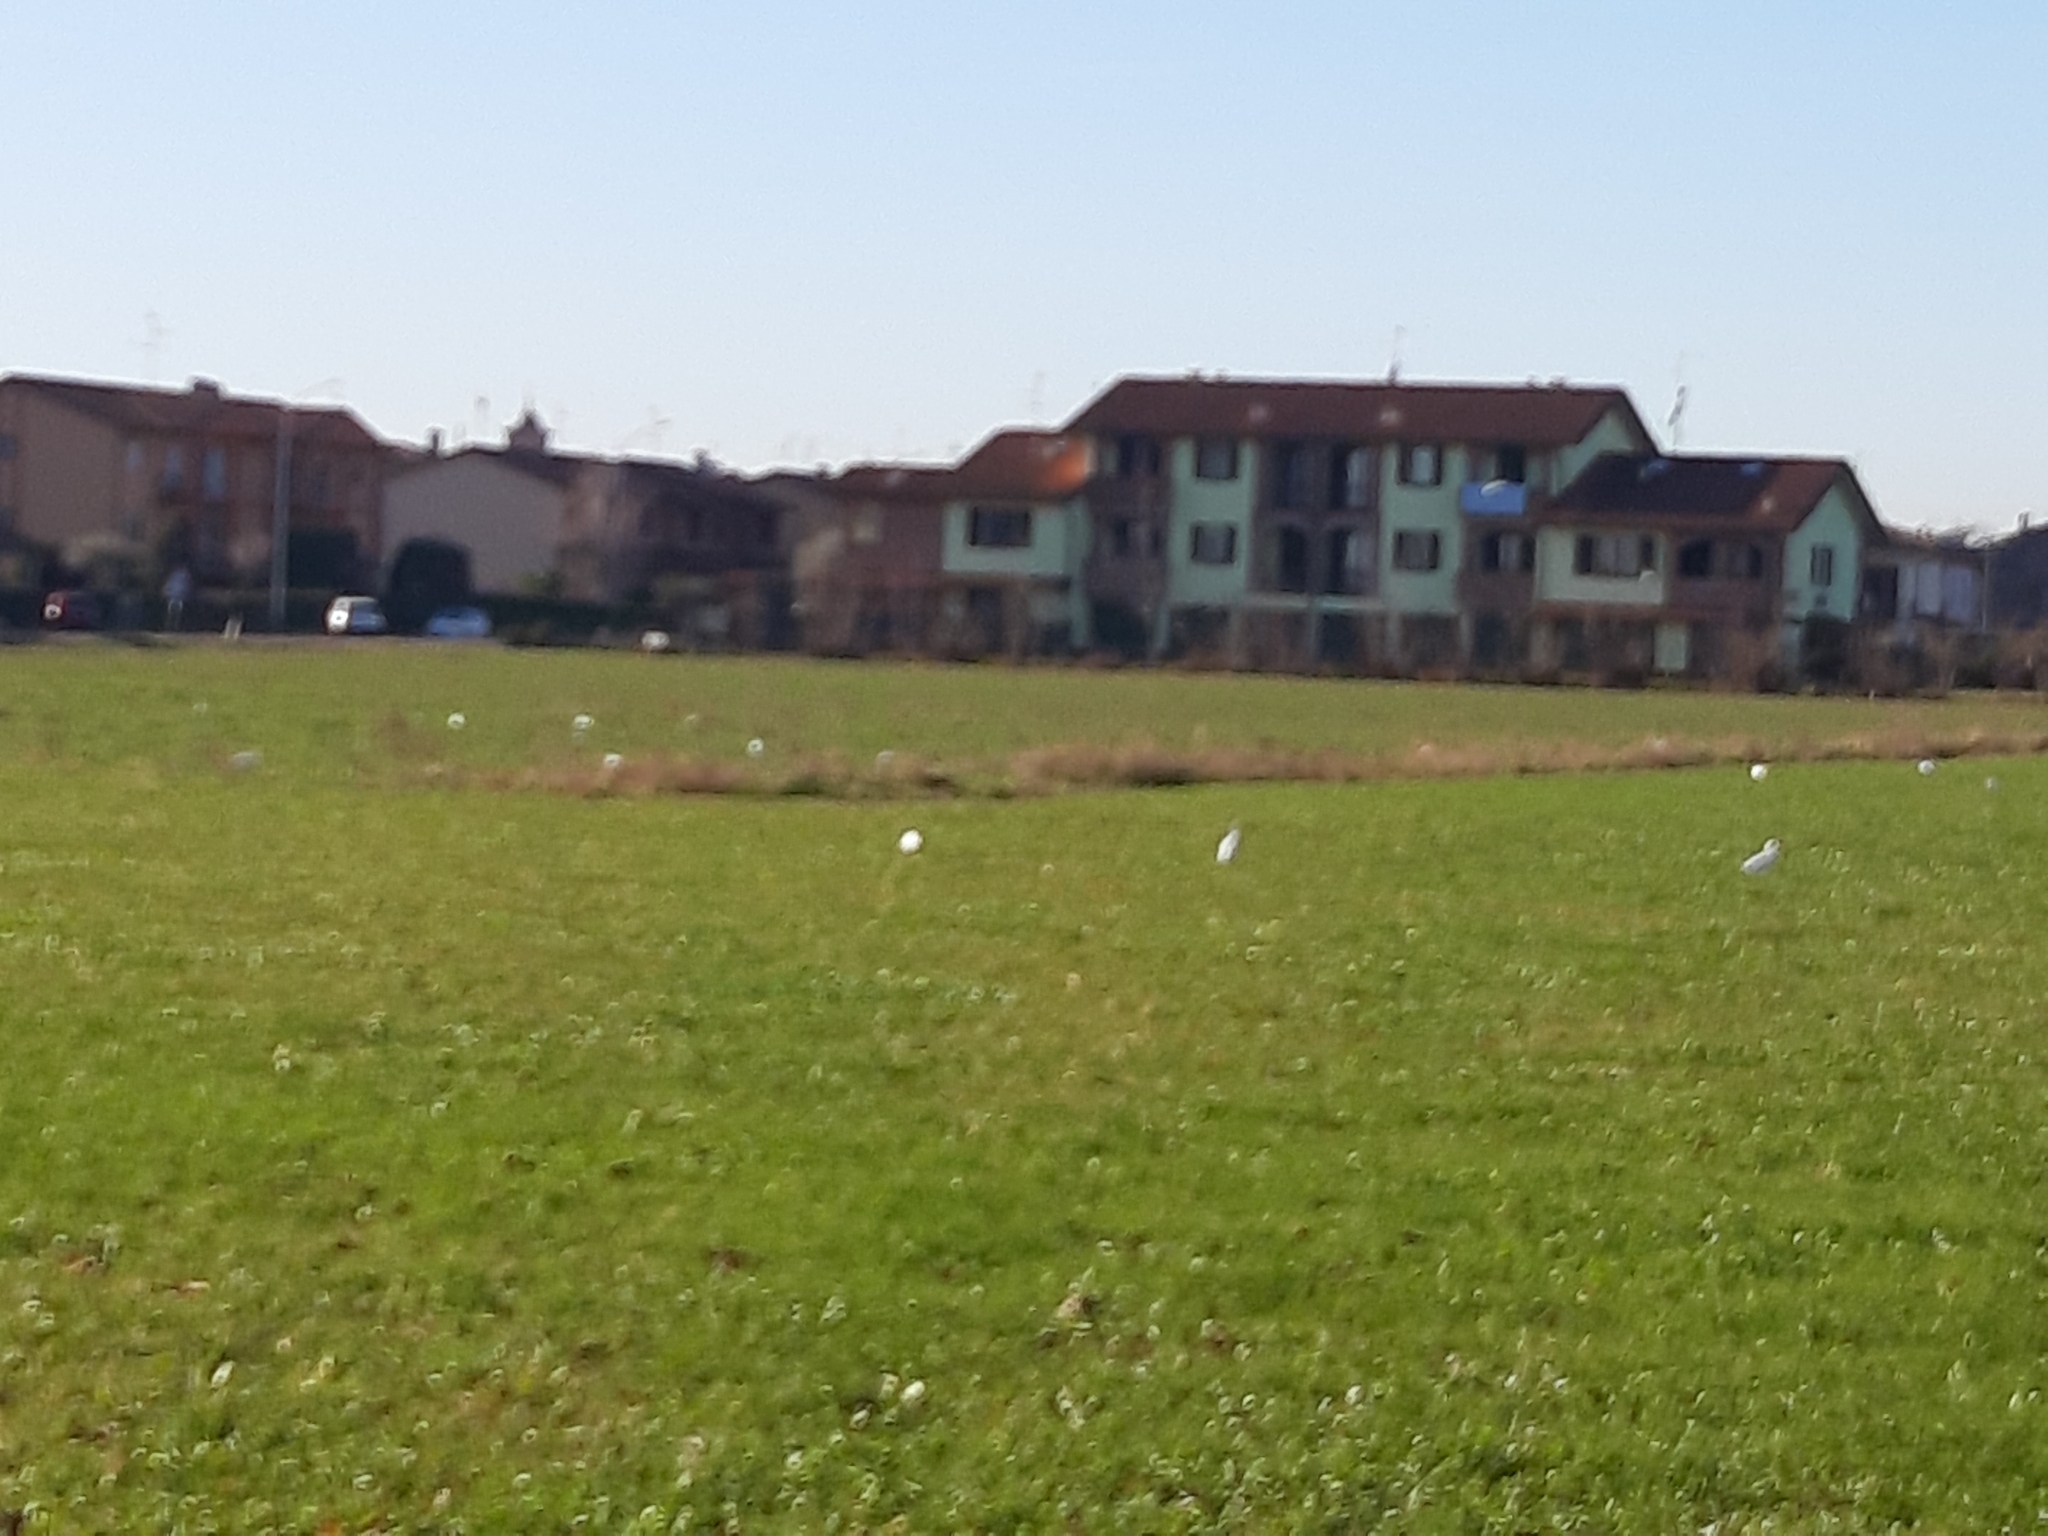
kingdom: Animalia
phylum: Chordata
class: Aves
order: Pelecaniformes
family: Ardeidae
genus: Bubulcus
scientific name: Bubulcus ibis
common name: Cattle egret
